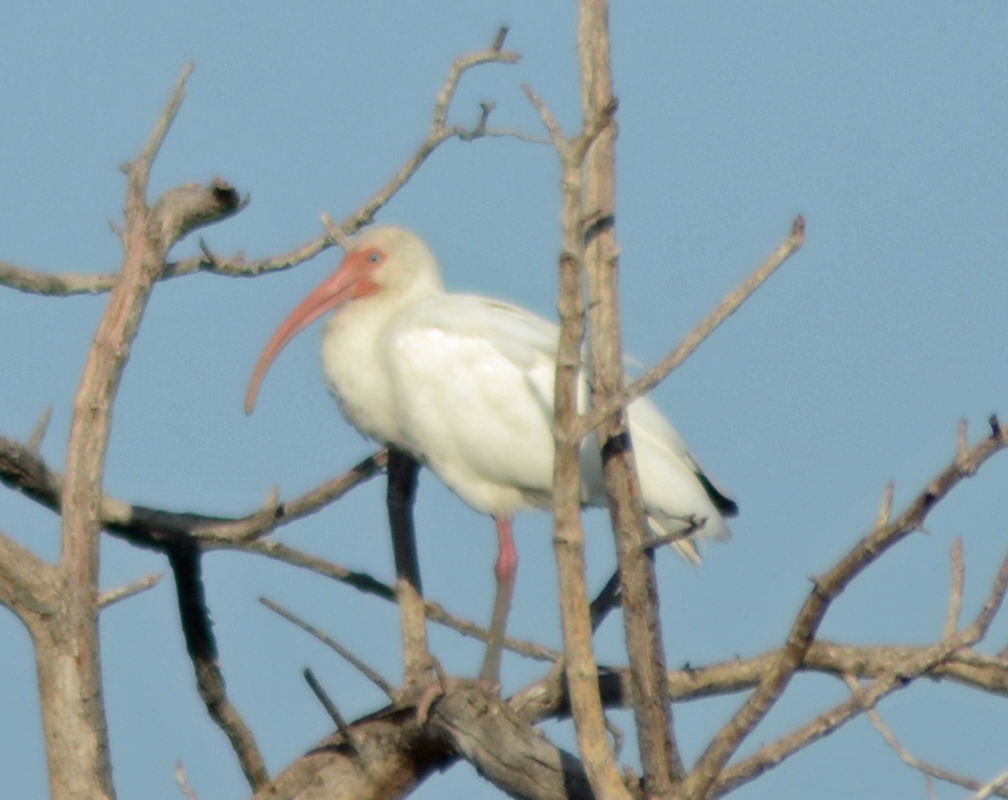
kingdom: Animalia
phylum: Chordata
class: Aves
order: Pelecaniformes
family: Threskiornithidae
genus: Eudocimus
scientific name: Eudocimus albus
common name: White ibis
